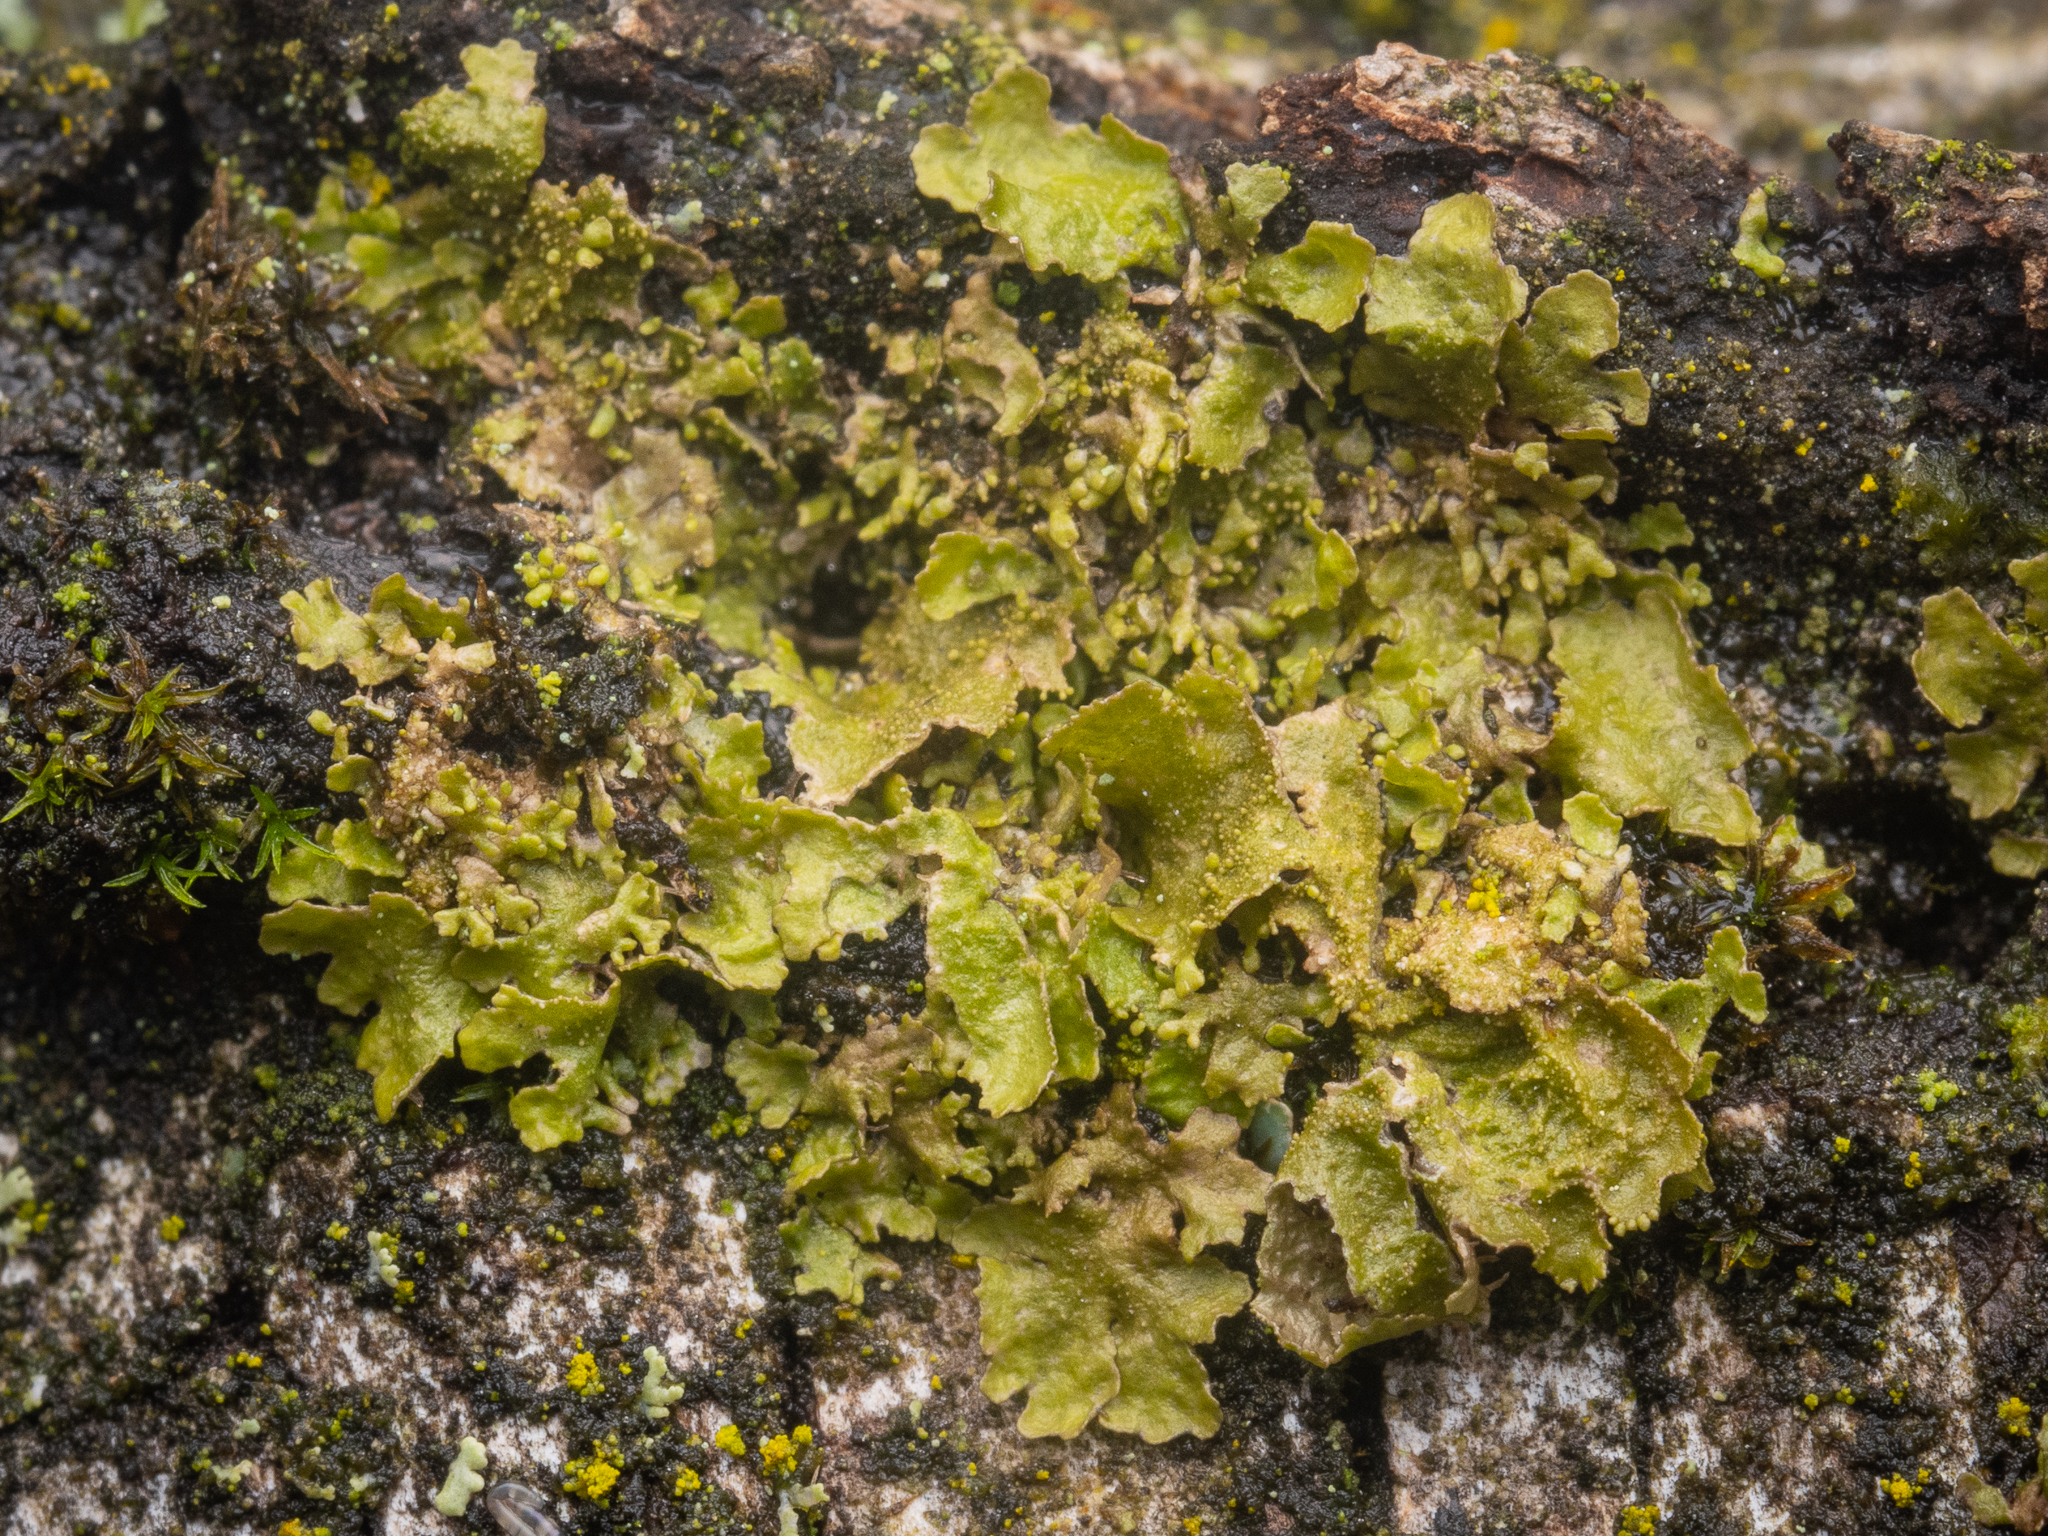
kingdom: Fungi
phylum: Ascomycota
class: Lecanoromycetes
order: Lecanorales
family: Parmeliaceae
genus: Melanohalea
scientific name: Melanohalea exasperatula
